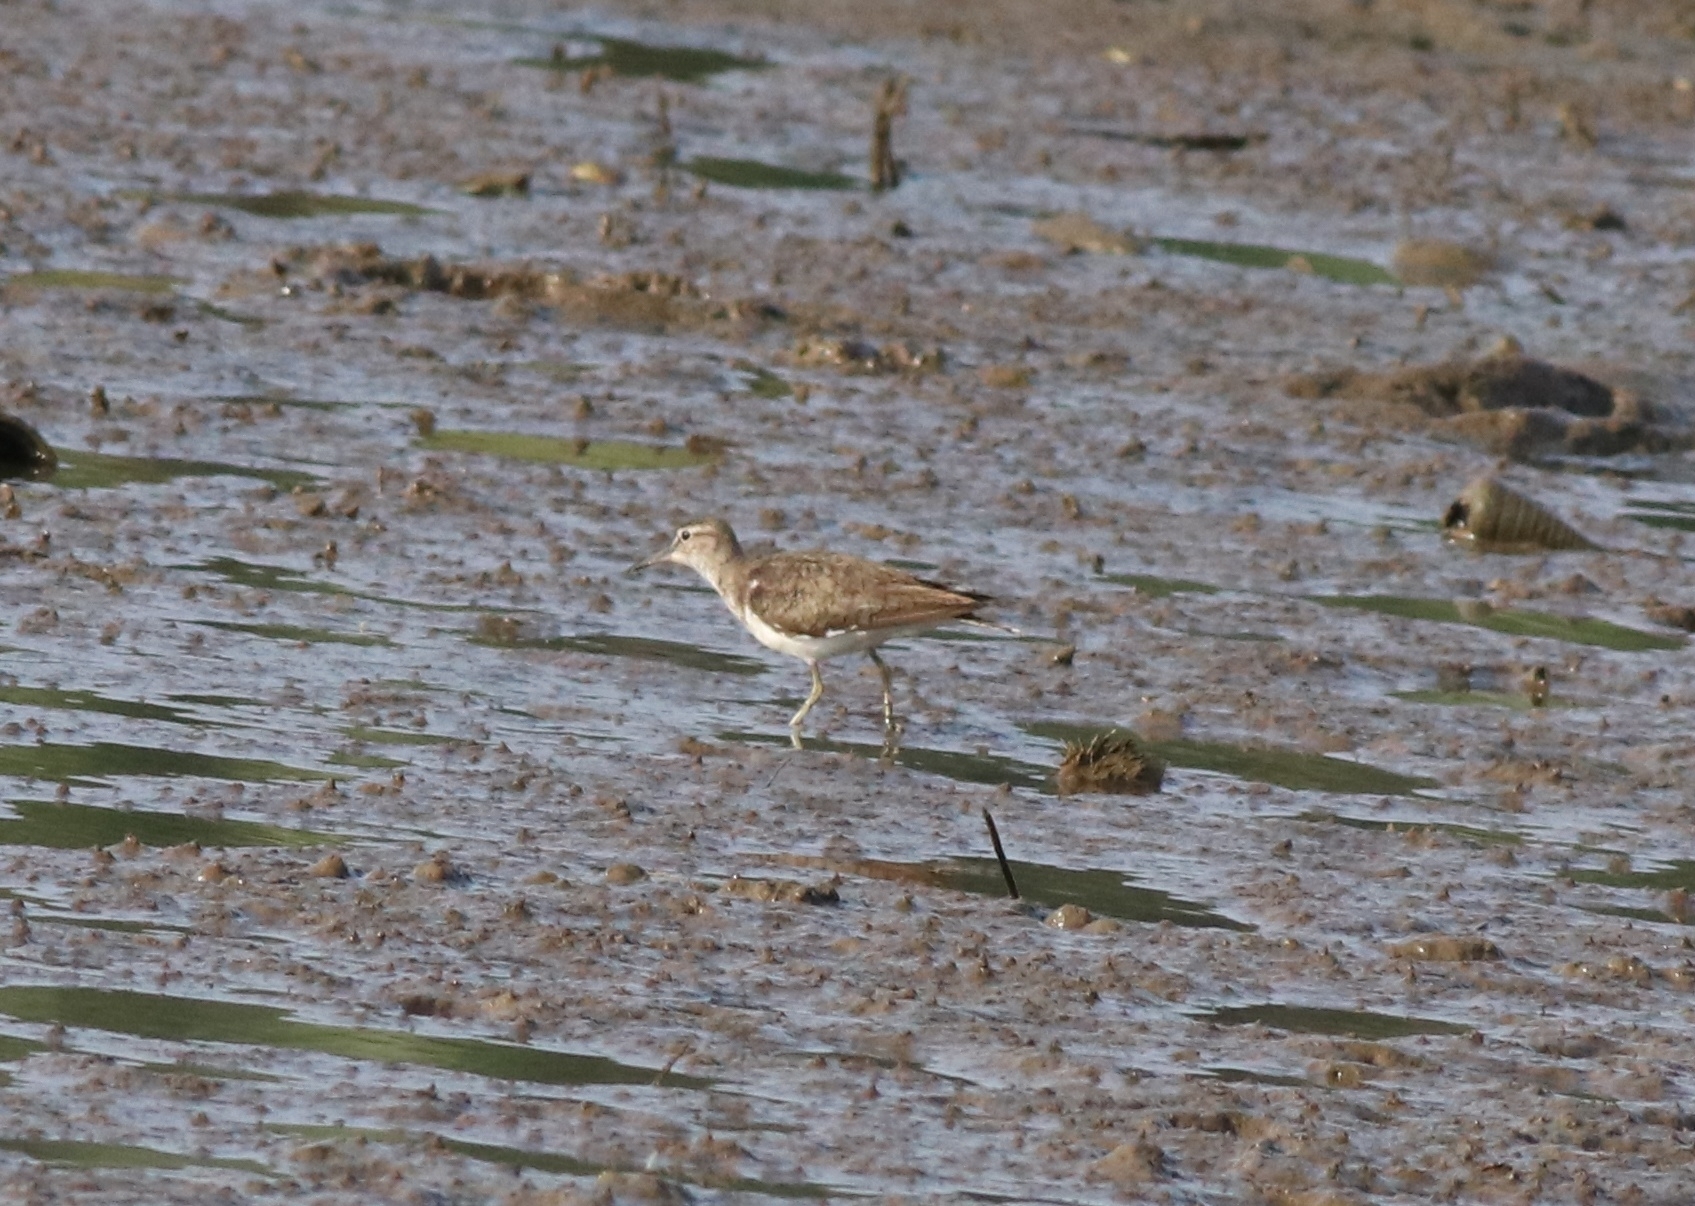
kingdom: Animalia
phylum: Chordata
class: Aves
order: Charadriiformes
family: Scolopacidae
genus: Actitis
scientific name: Actitis hypoleucos
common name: Common sandpiper
